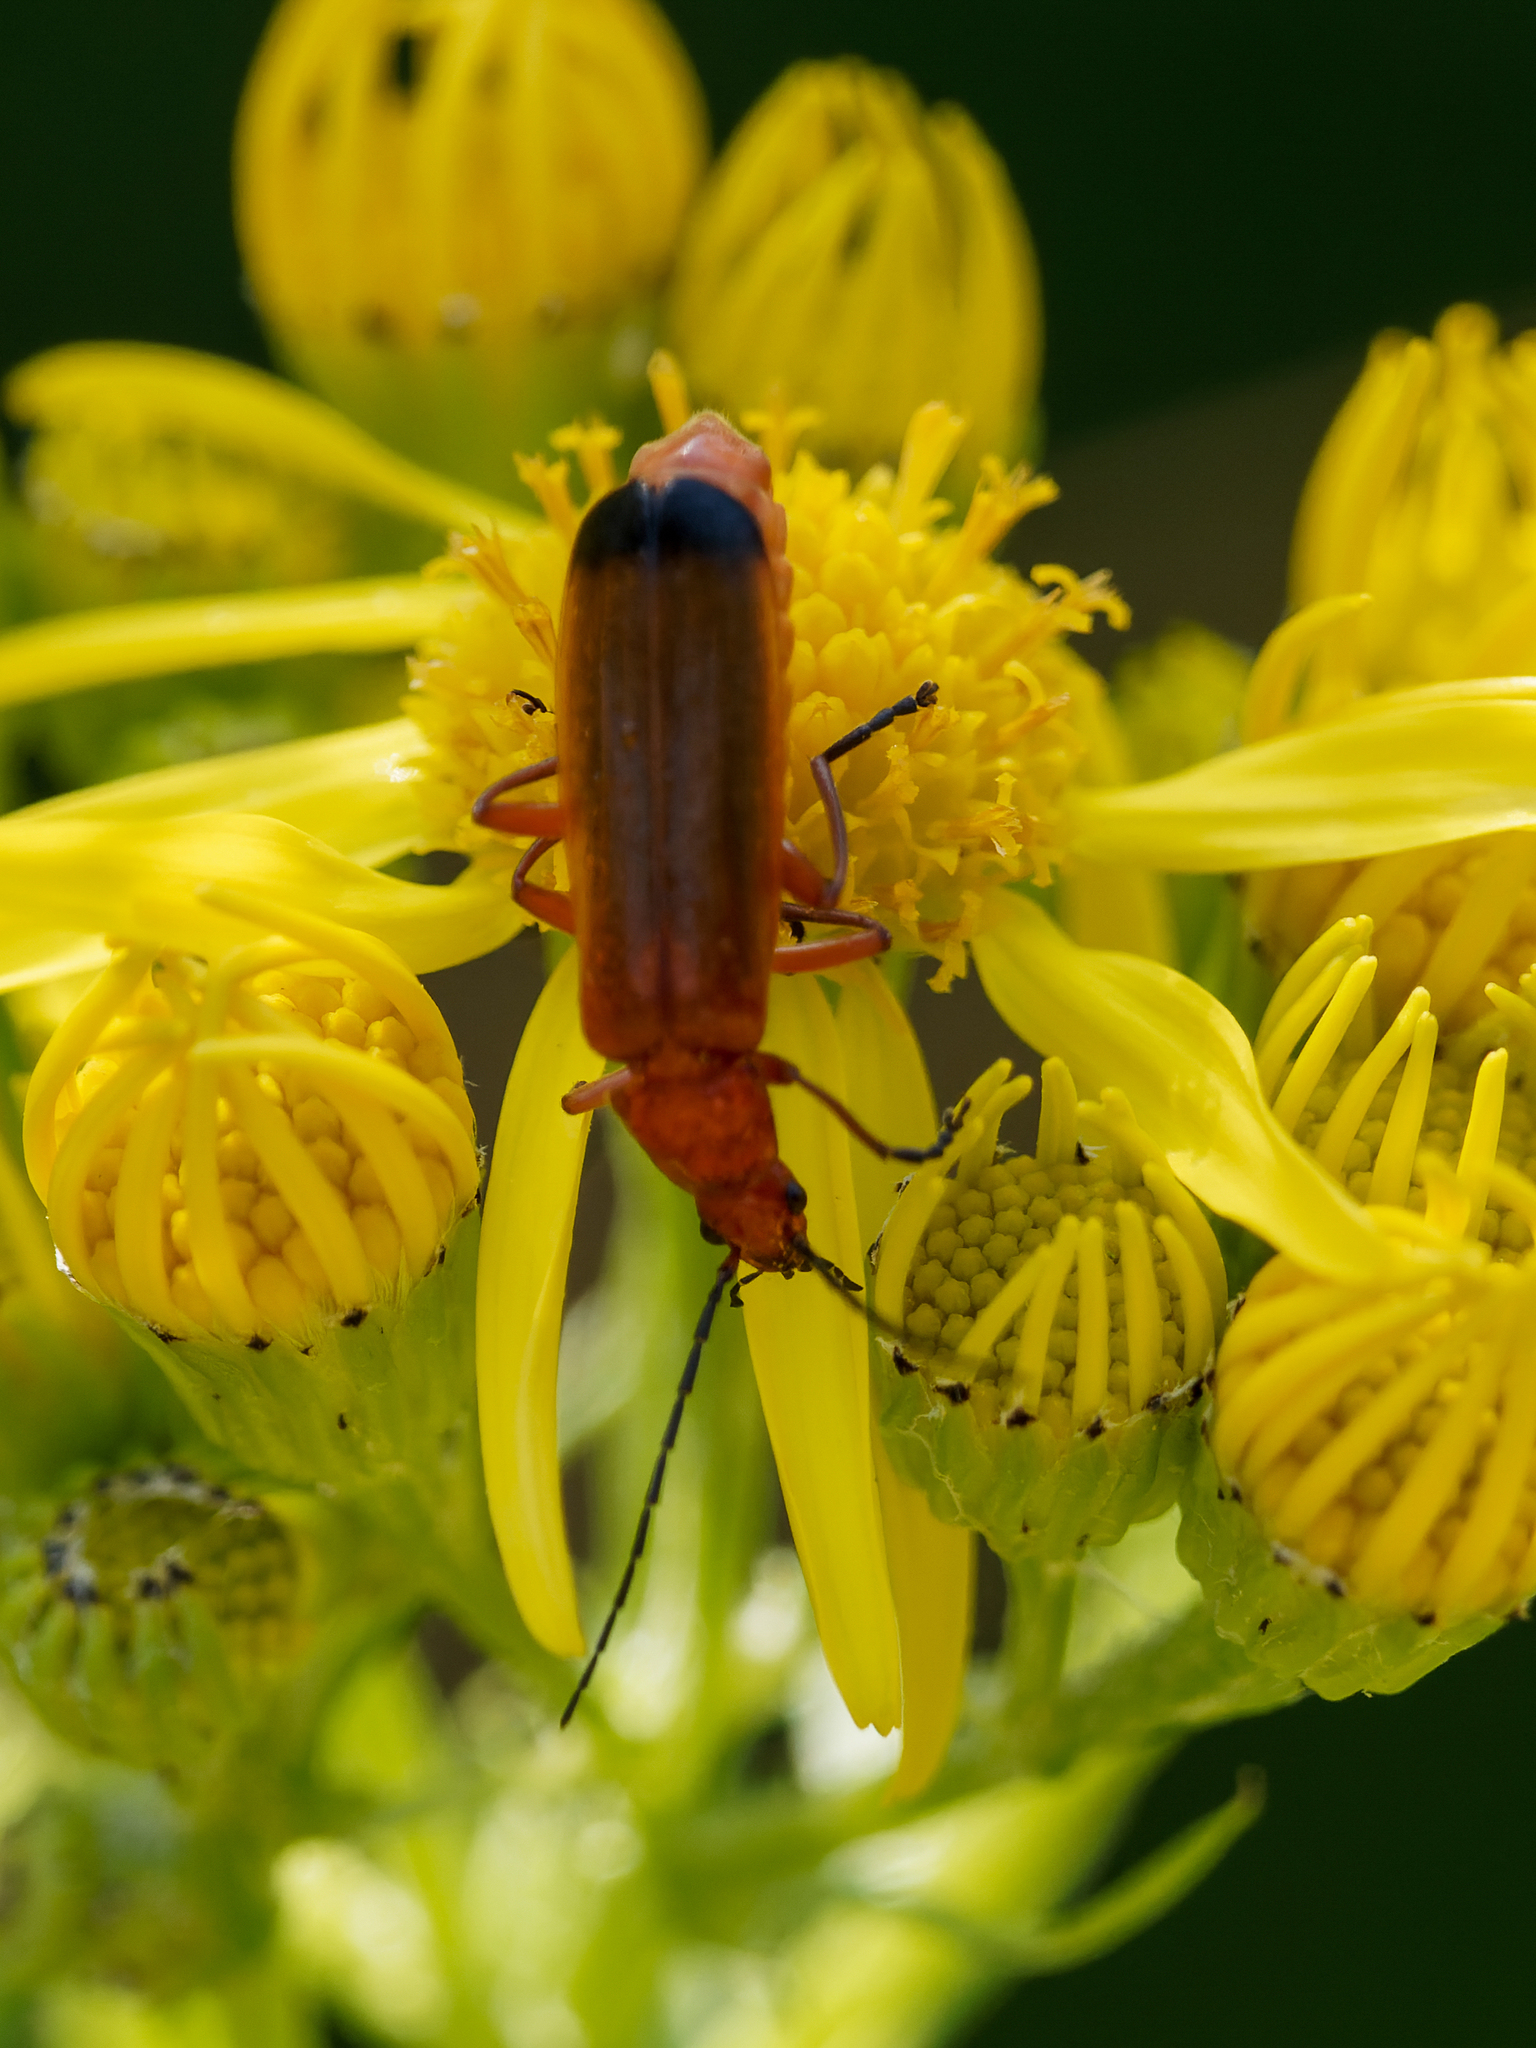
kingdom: Animalia
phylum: Arthropoda
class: Insecta
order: Coleoptera
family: Cantharidae
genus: Rhagonycha
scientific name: Rhagonycha fulva
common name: Common red soldier beetle
